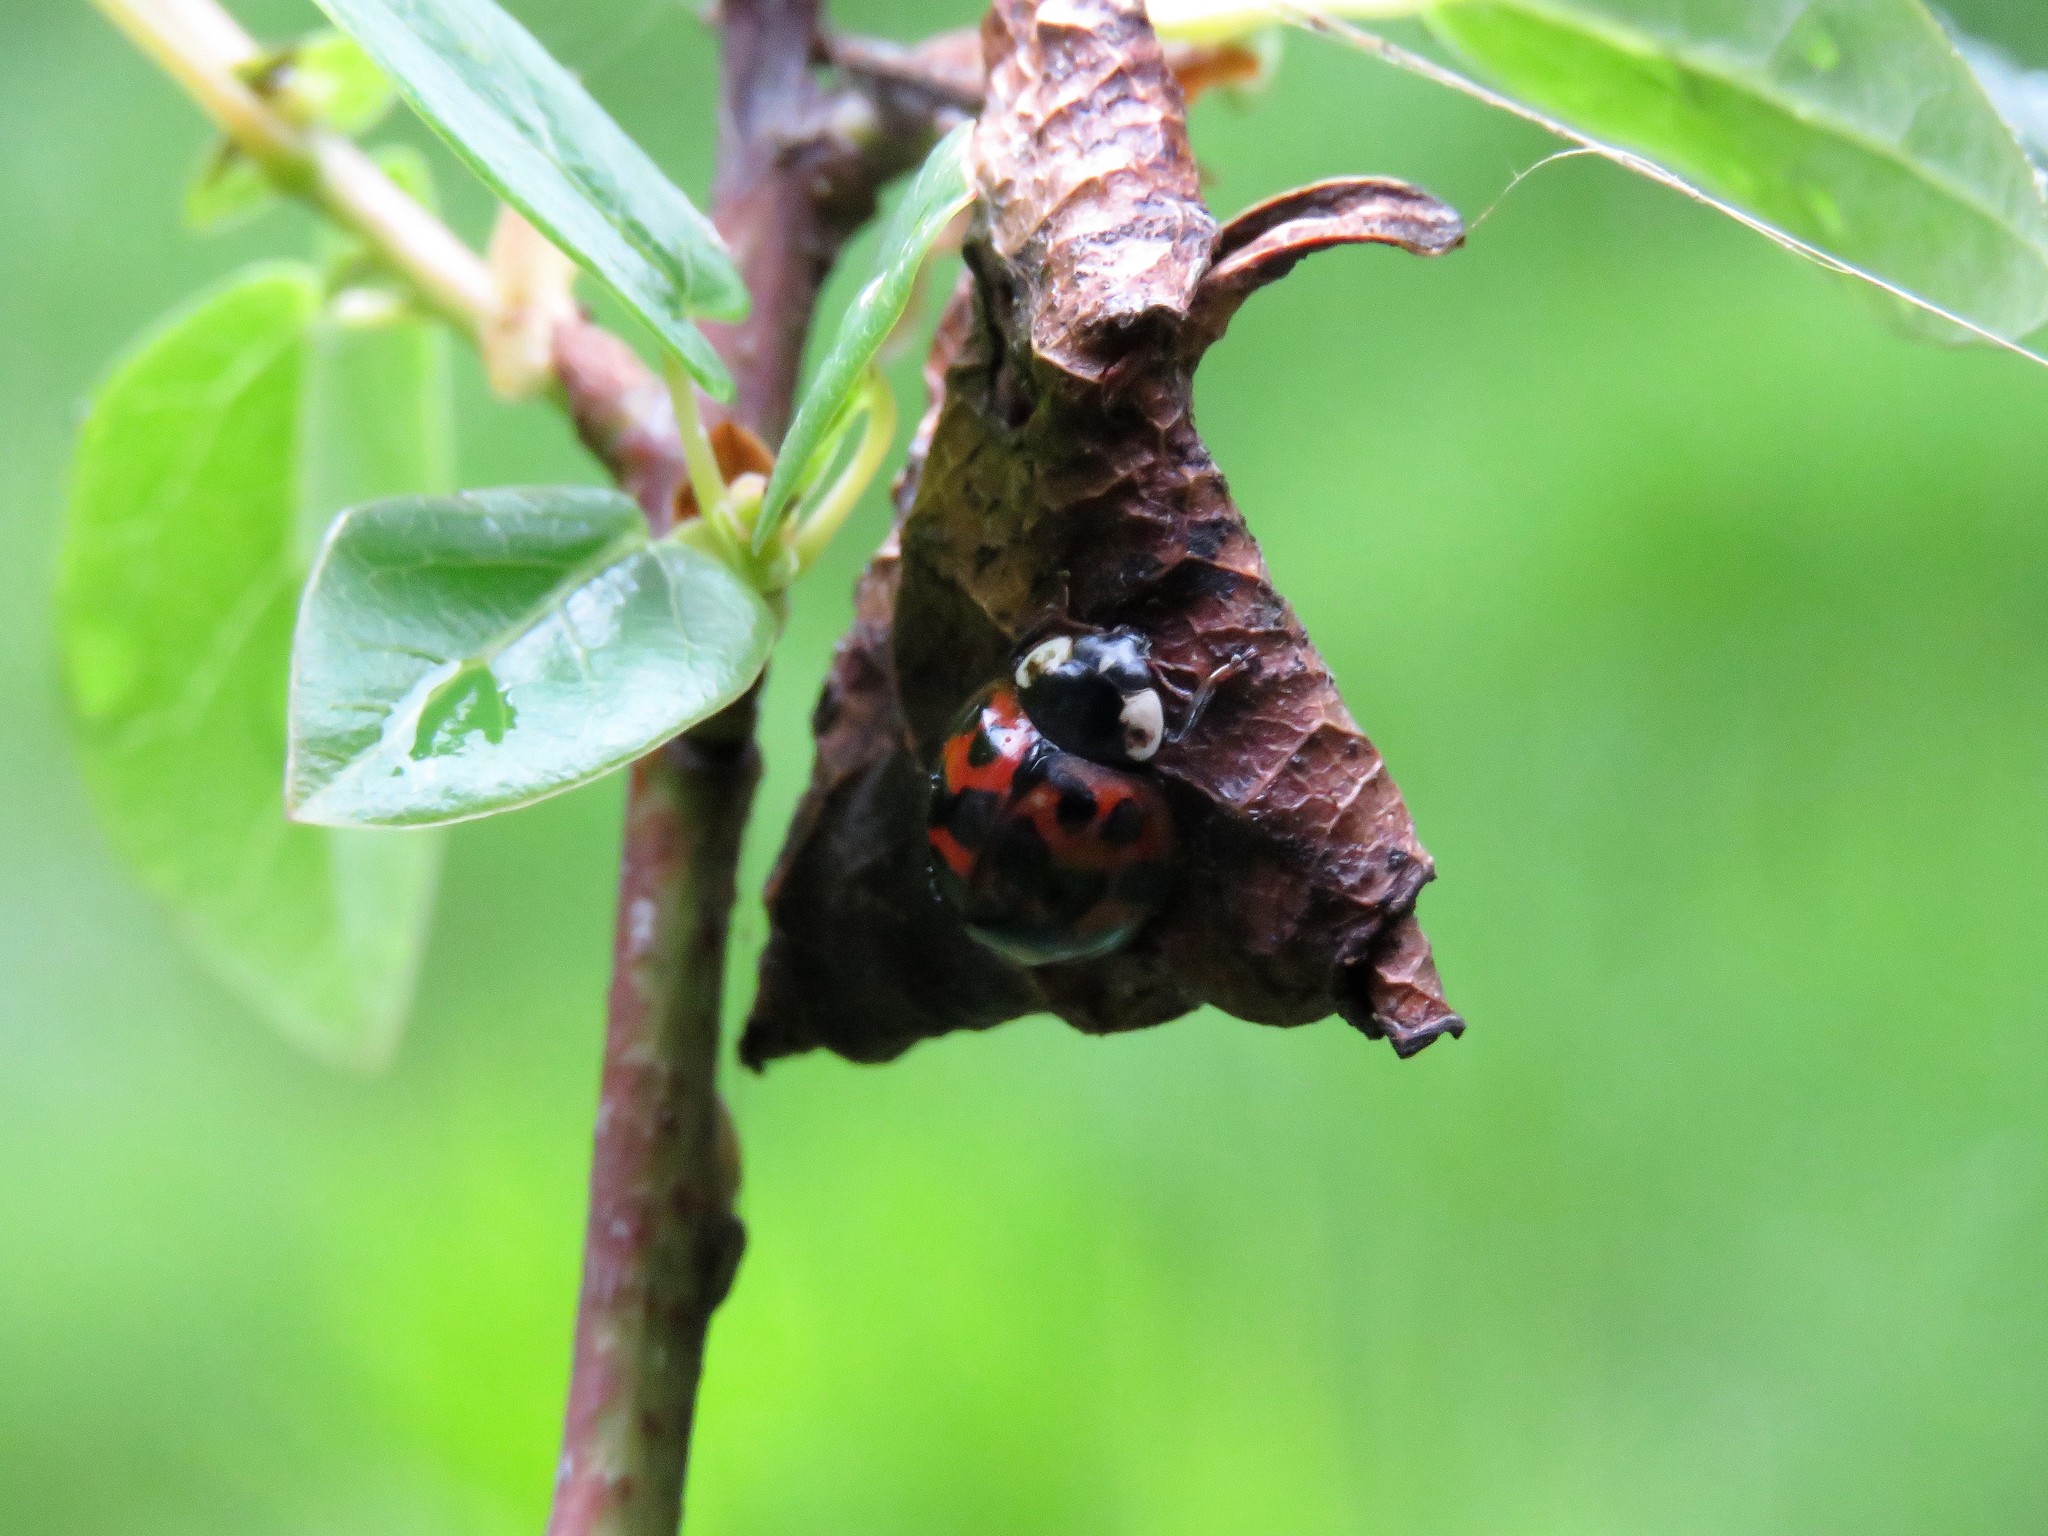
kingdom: Animalia
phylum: Arthropoda
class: Insecta
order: Coleoptera
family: Coccinellidae
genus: Harmonia
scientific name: Harmonia axyridis
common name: Harlequin ladybird
